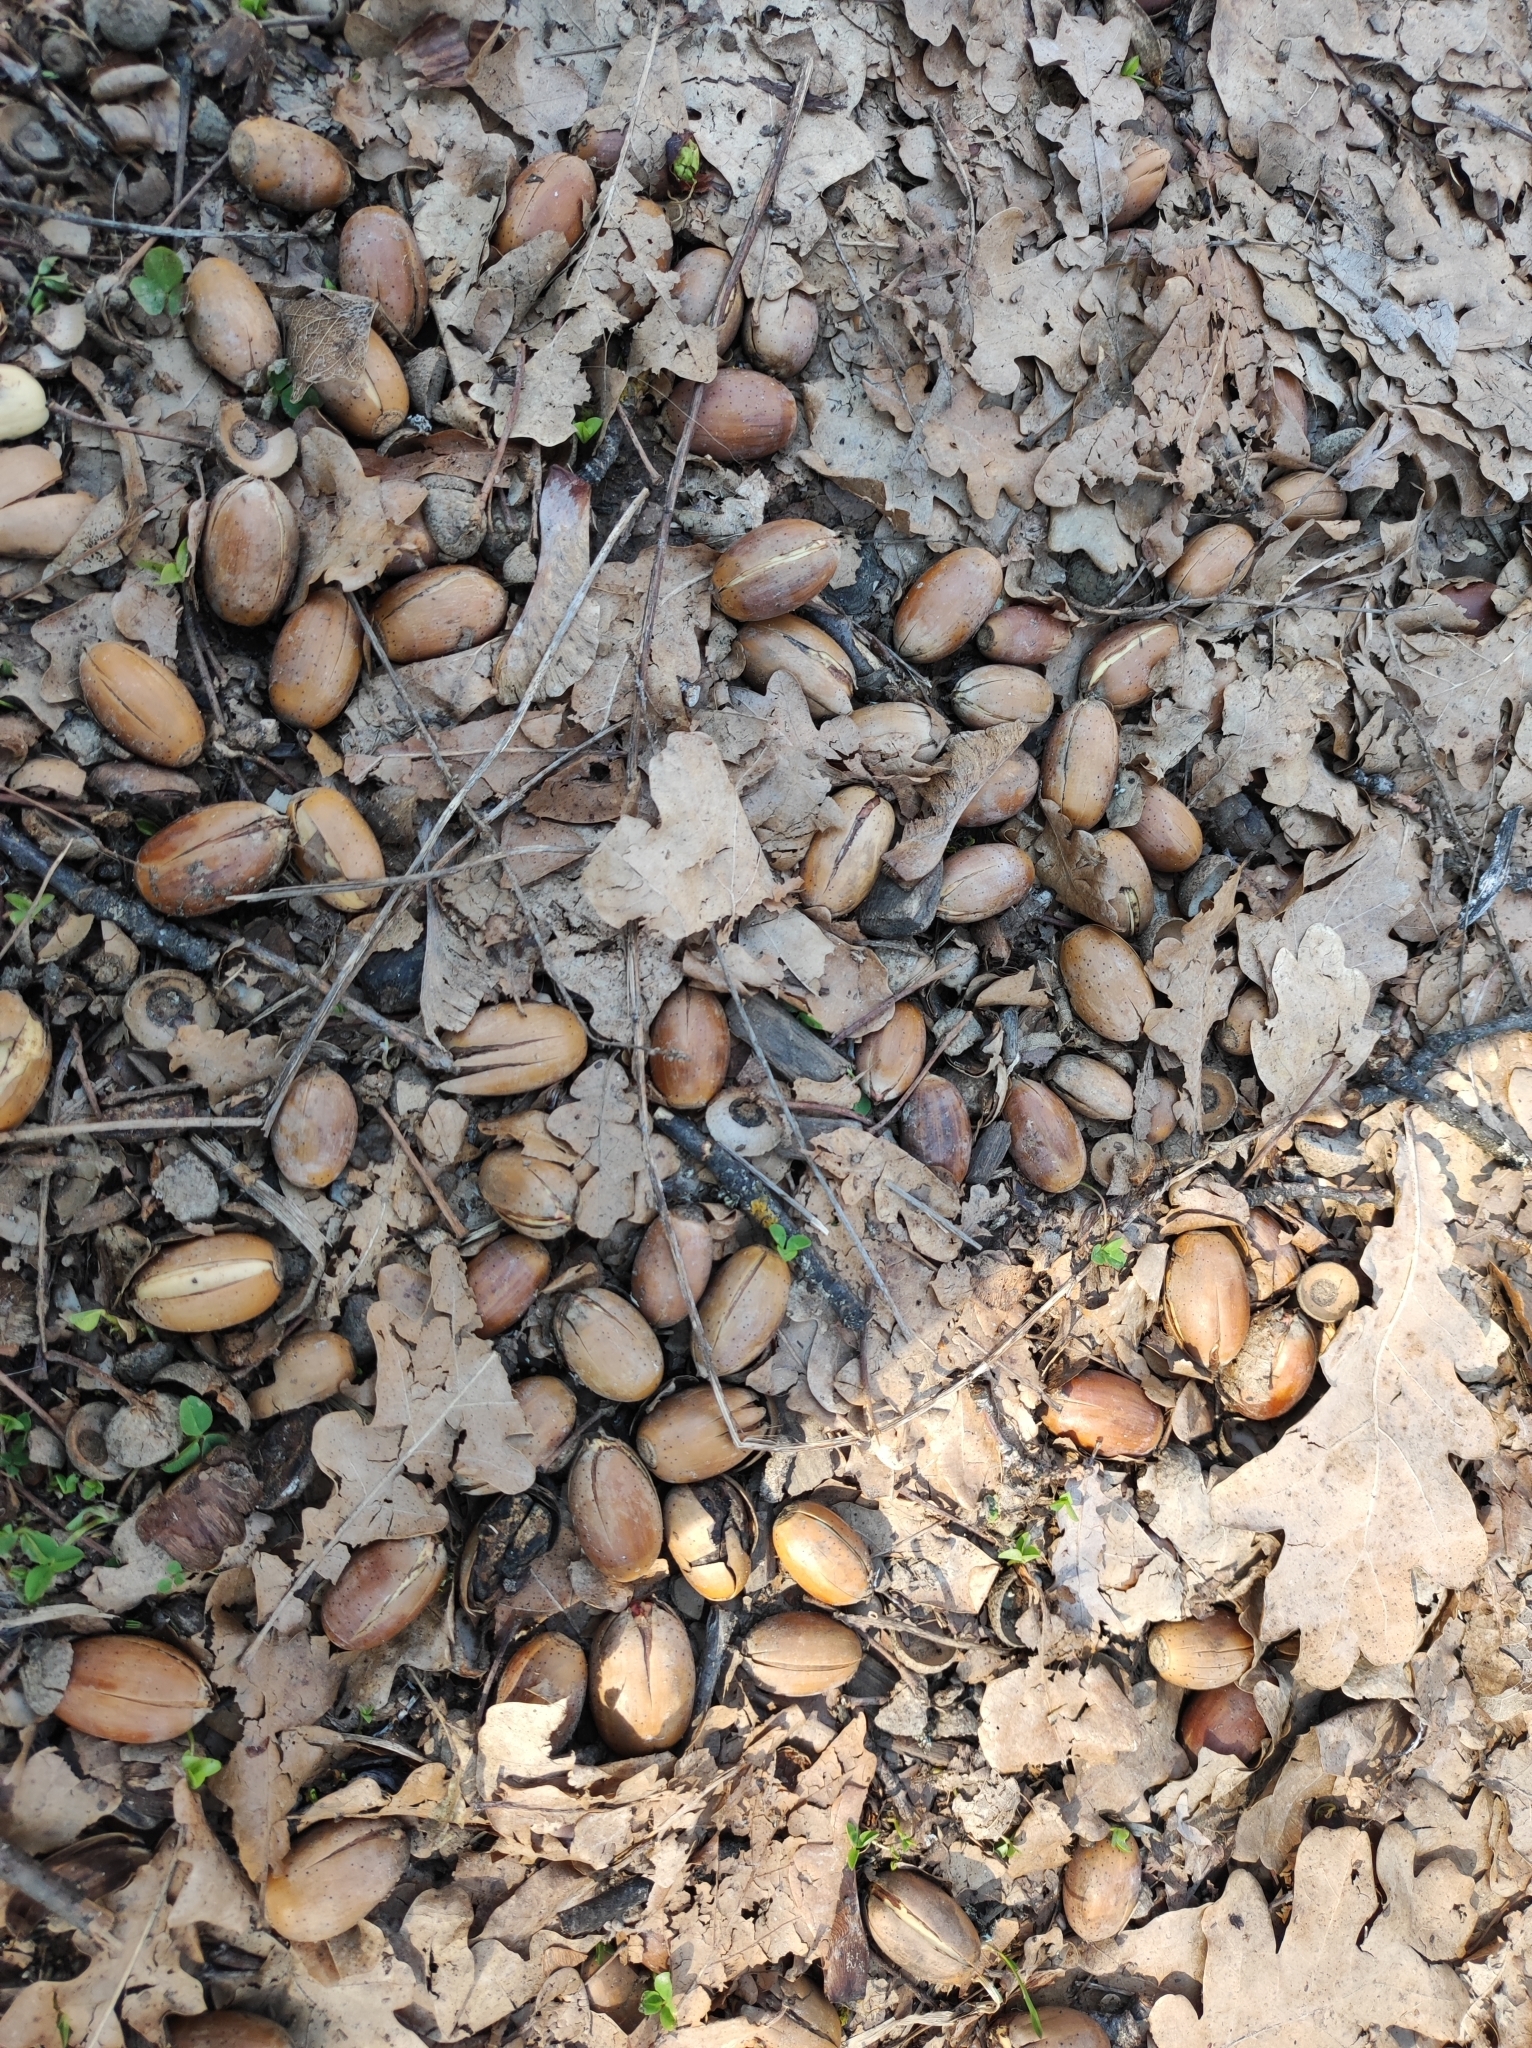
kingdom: Plantae
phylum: Tracheophyta
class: Magnoliopsida
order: Fagales
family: Fagaceae
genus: Quercus
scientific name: Quercus robur
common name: Pedunculate oak
